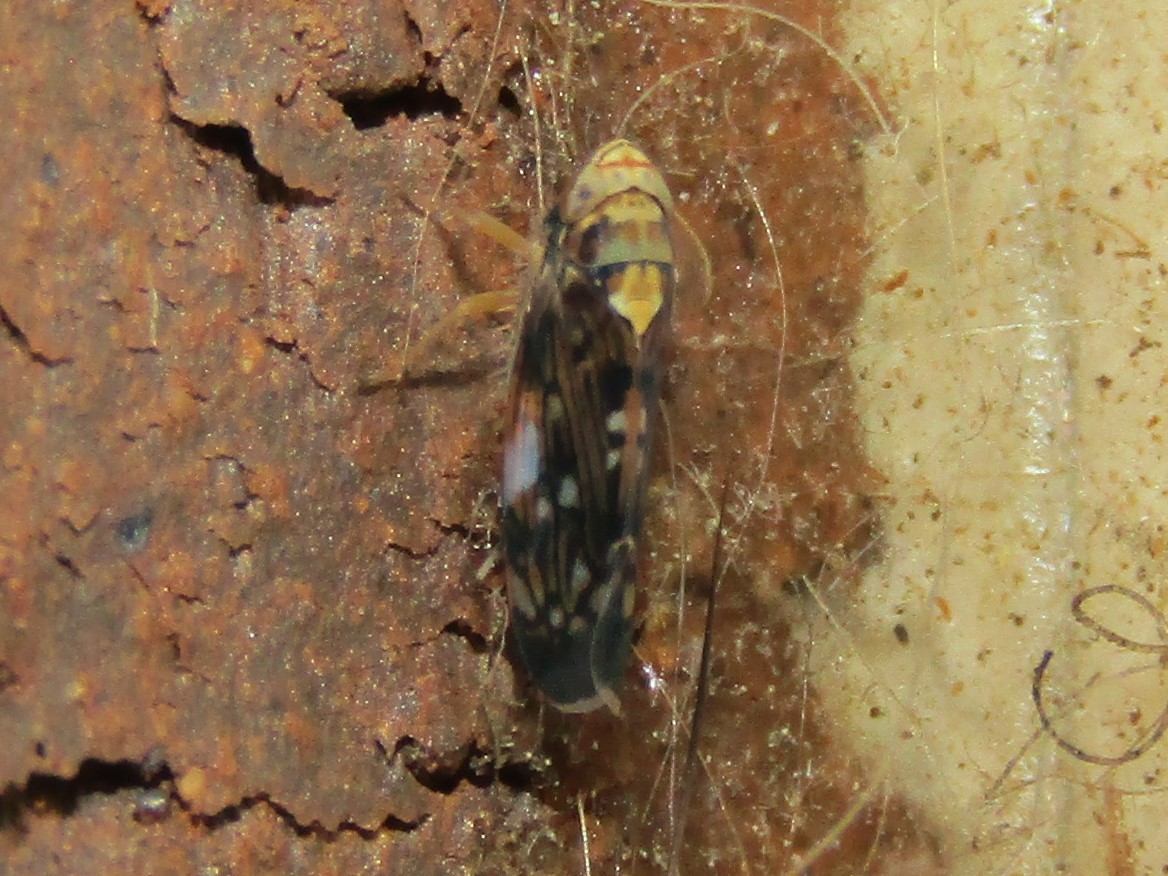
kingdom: Animalia
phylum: Arthropoda
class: Insecta
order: Hemiptera
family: Cicadellidae
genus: Scaphoideus
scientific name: Scaphoideus pullus
